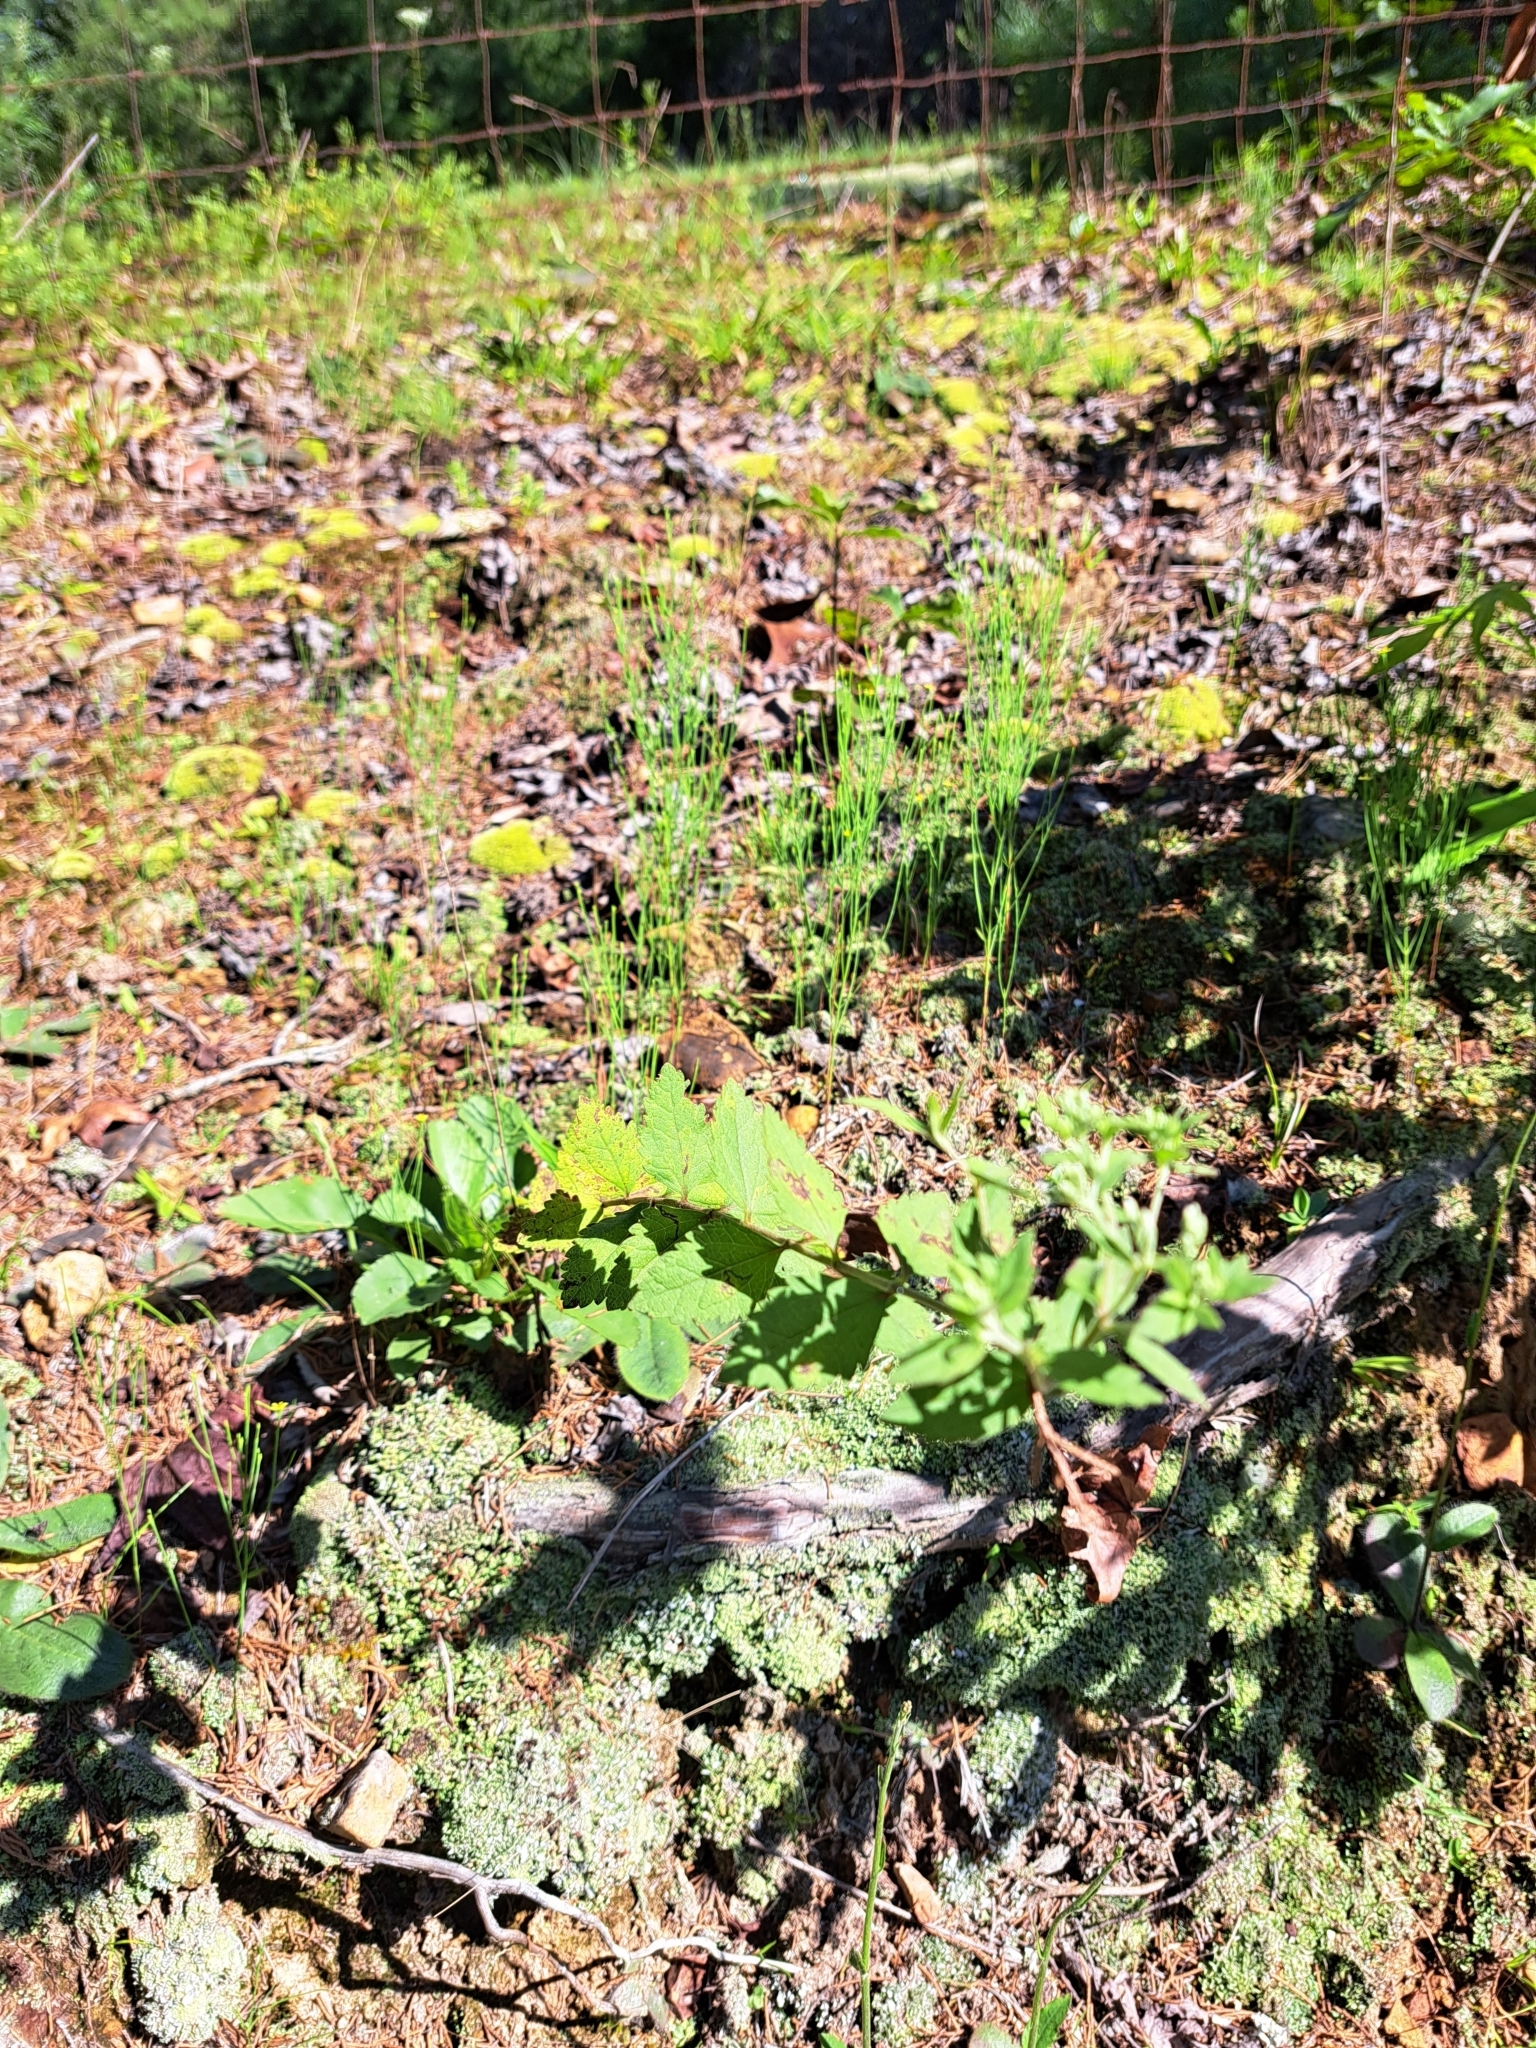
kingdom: Plantae
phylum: Tracheophyta
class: Magnoliopsida
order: Asterales
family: Asteraceae
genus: Eupatorium
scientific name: Eupatorium rotundifolium
